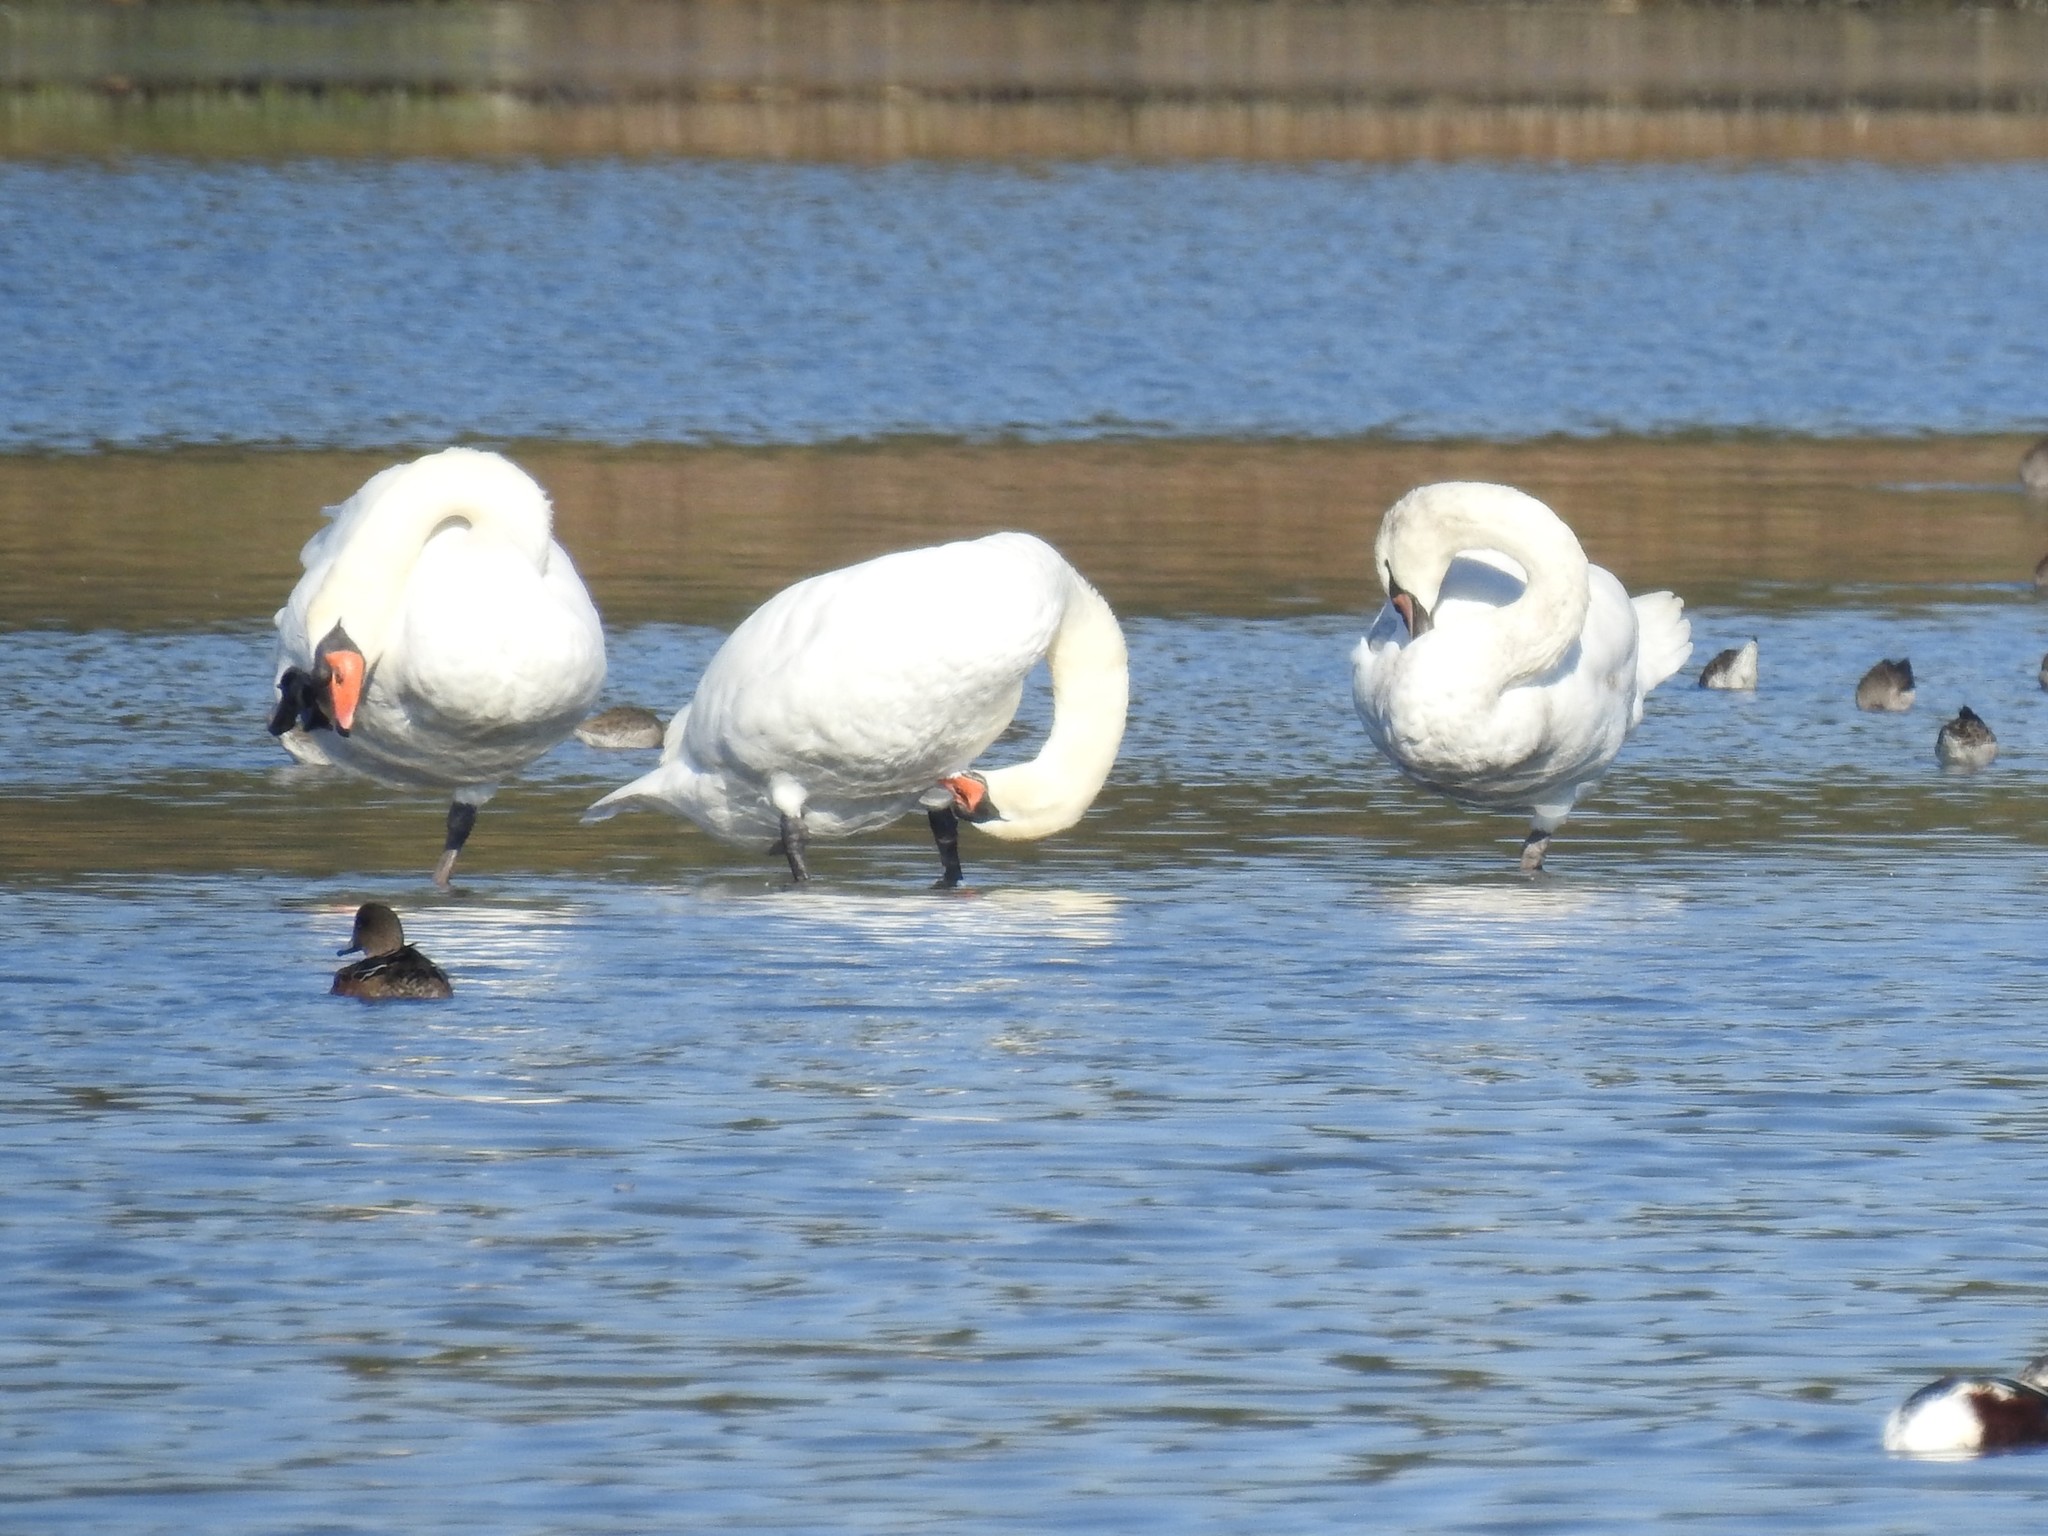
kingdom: Animalia
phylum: Chordata
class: Aves
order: Anseriformes
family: Anatidae
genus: Cygnus
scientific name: Cygnus olor
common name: Mute swan
